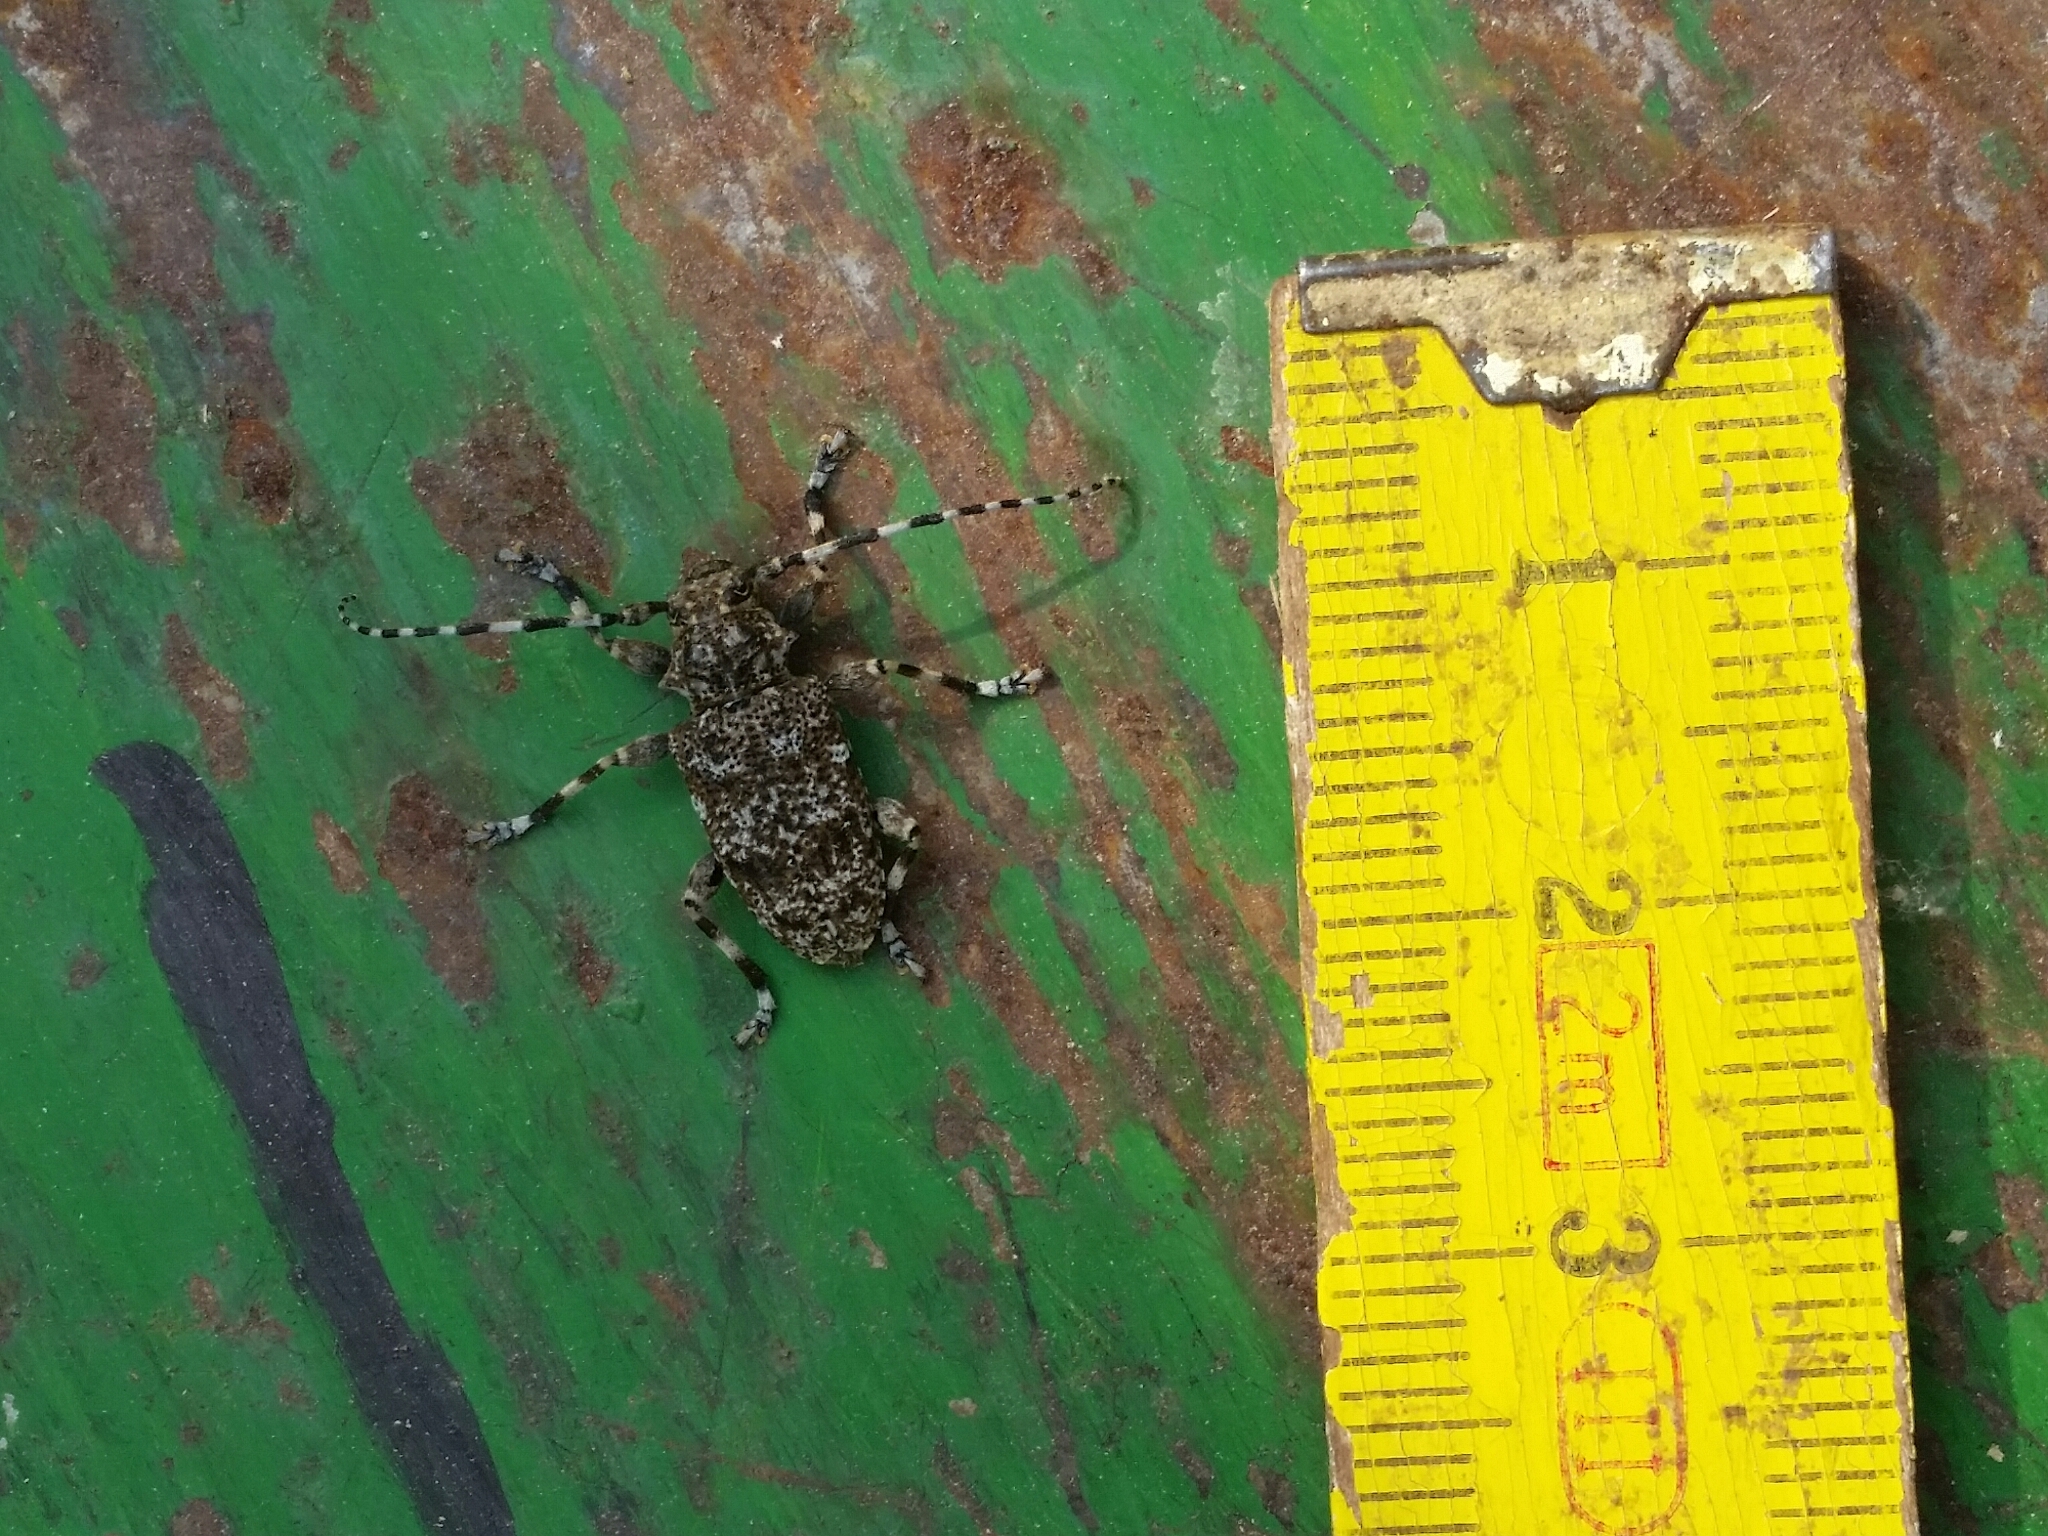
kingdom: Animalia
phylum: Arthropoda
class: Insecta
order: Coleoptera
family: Cerambycidae
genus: Aegomorphus
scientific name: Aegomorphus clavipes
